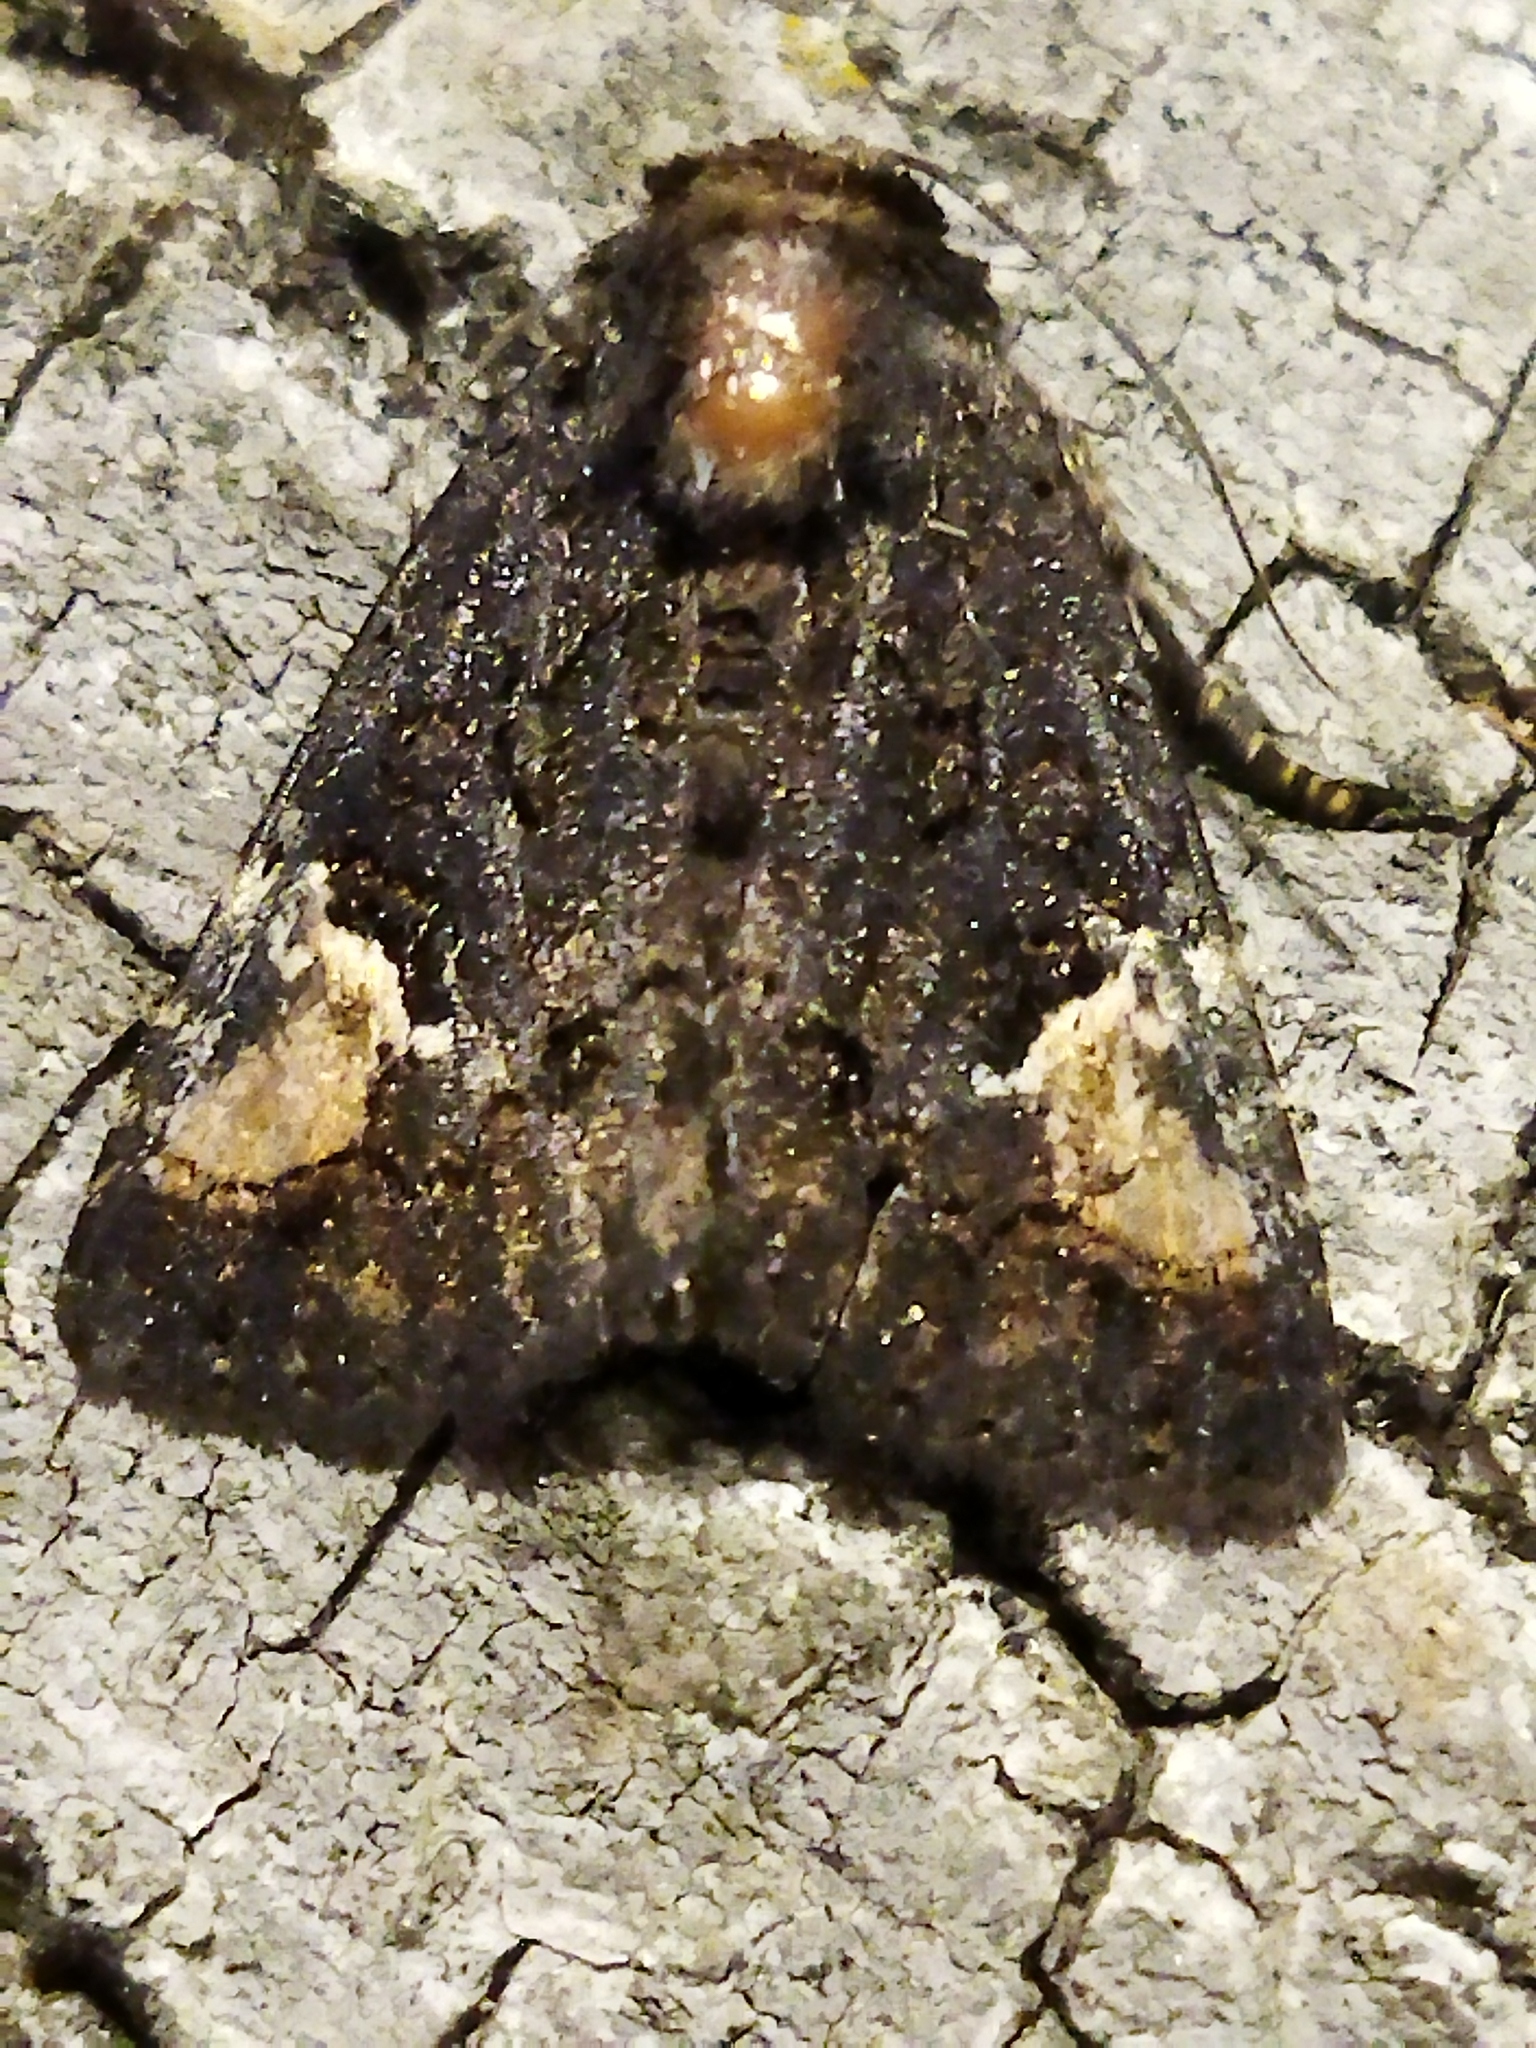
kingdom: Animalia
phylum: Arthropoda
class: Insecta
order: Lepidoptera
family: Noctuidae
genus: Aedia
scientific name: Aedia funesta
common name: The druid
